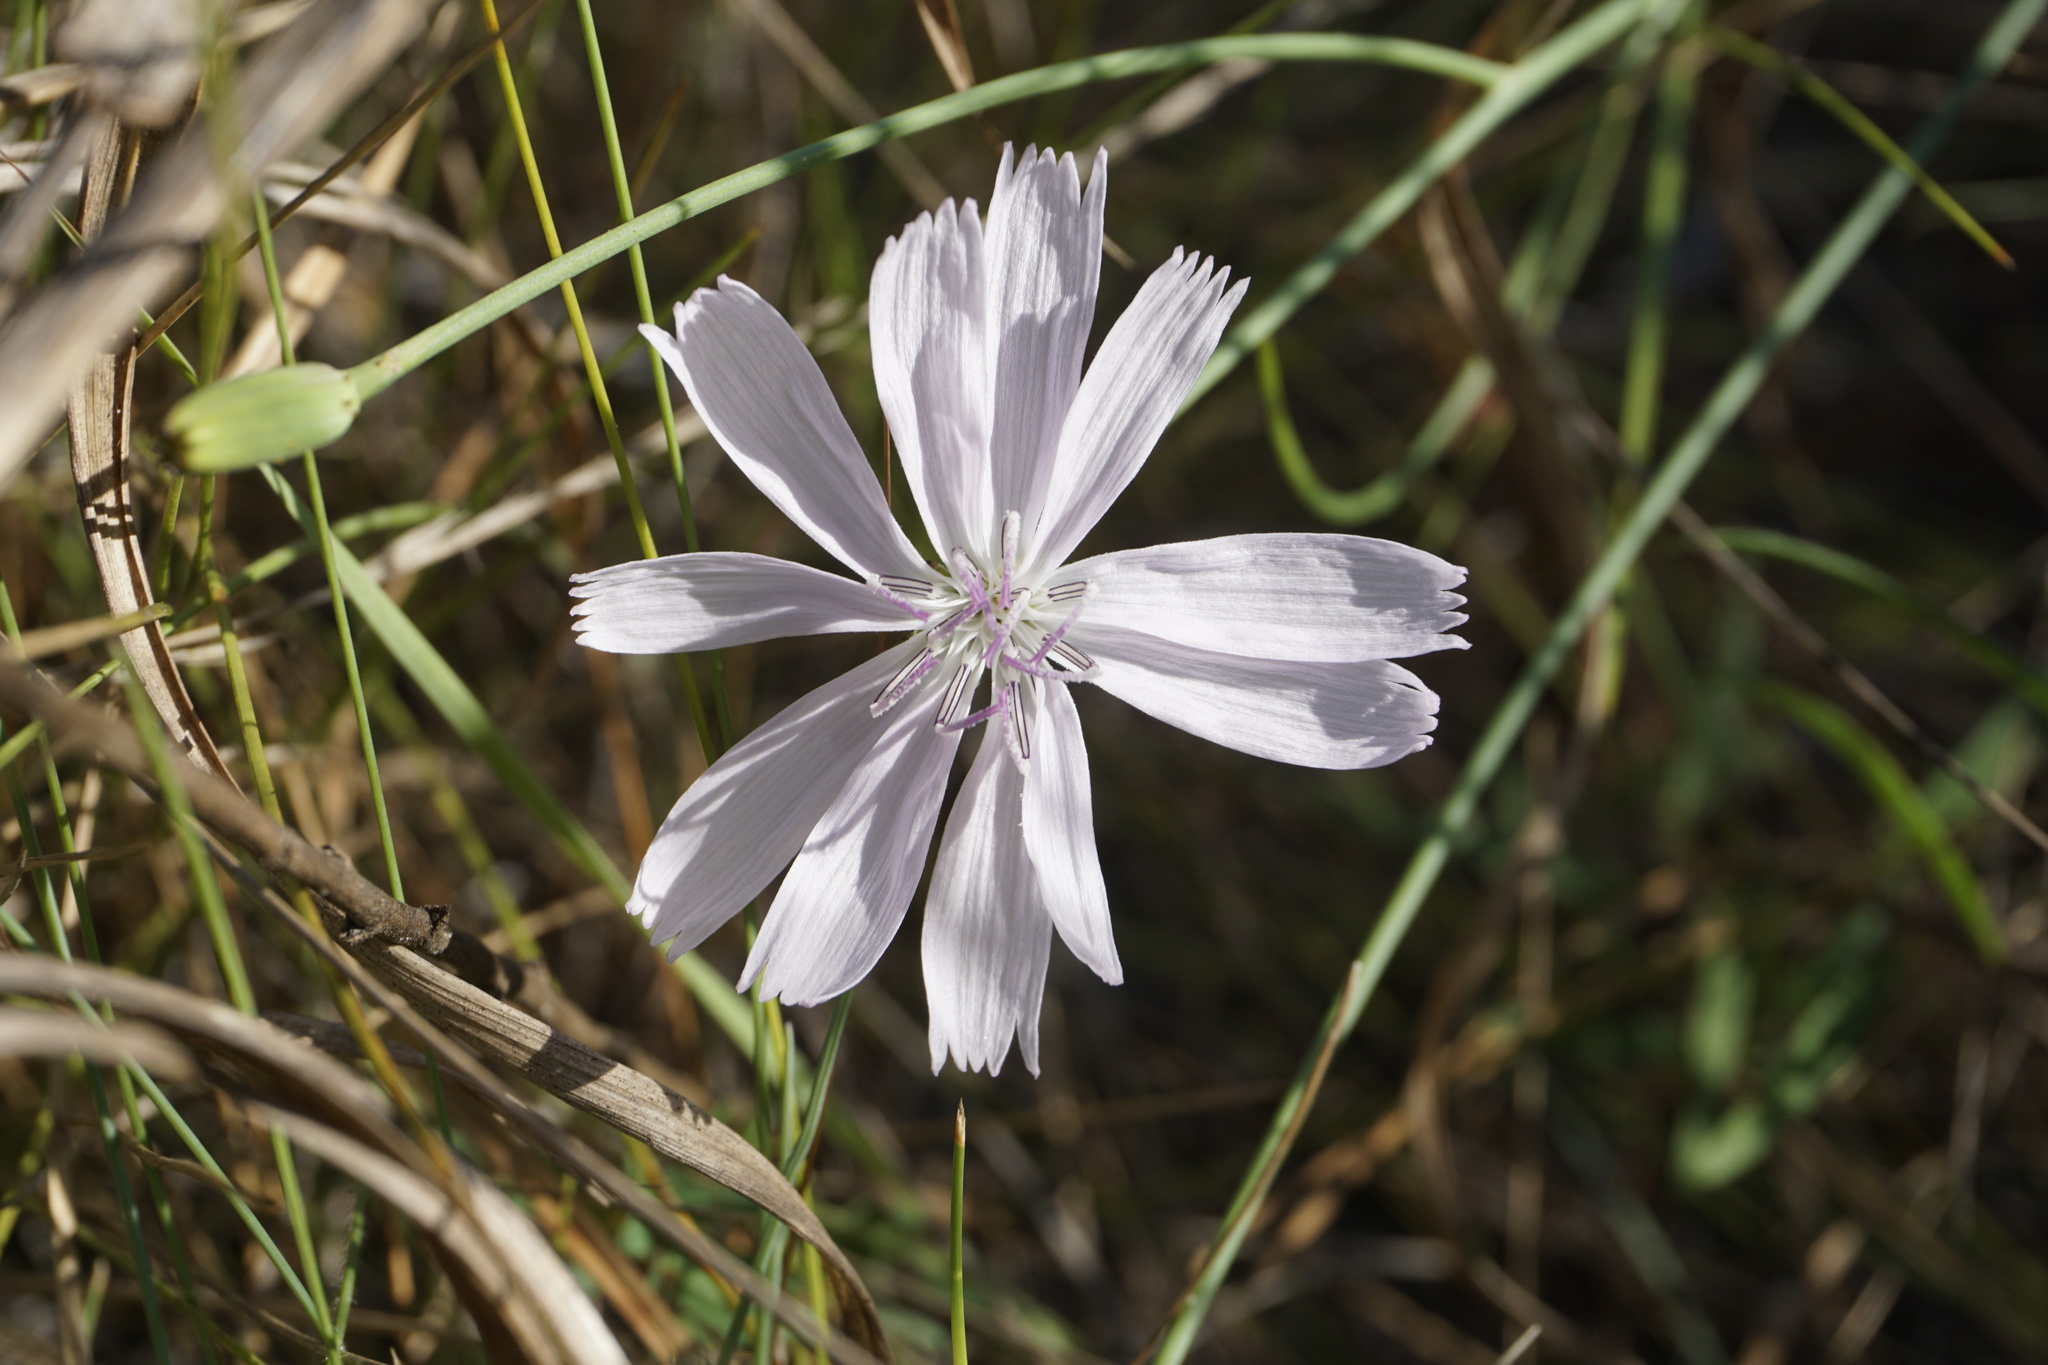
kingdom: Plantae
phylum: Tracheophyta
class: Magnoliopsida
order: Asterales
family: Asteraceae
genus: Lygodesmia
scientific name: Lygodesmia aphylla
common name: Rose-rush
